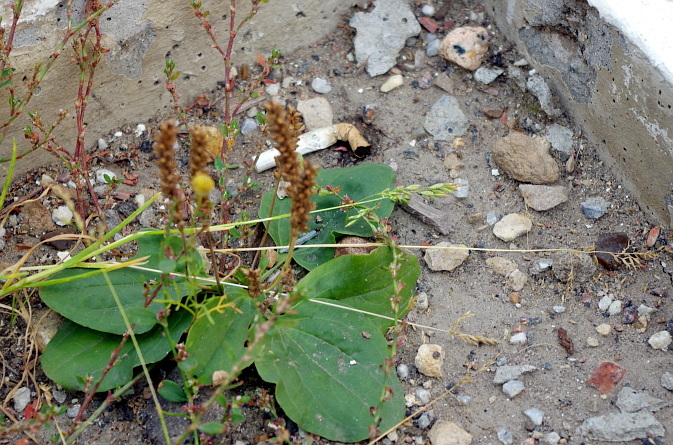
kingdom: Plantae
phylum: Tracheophyta
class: Magnoliopsida
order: Lamiales
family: Plantaginaceae
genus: Plantago
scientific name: Plantago major
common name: Common plantain
